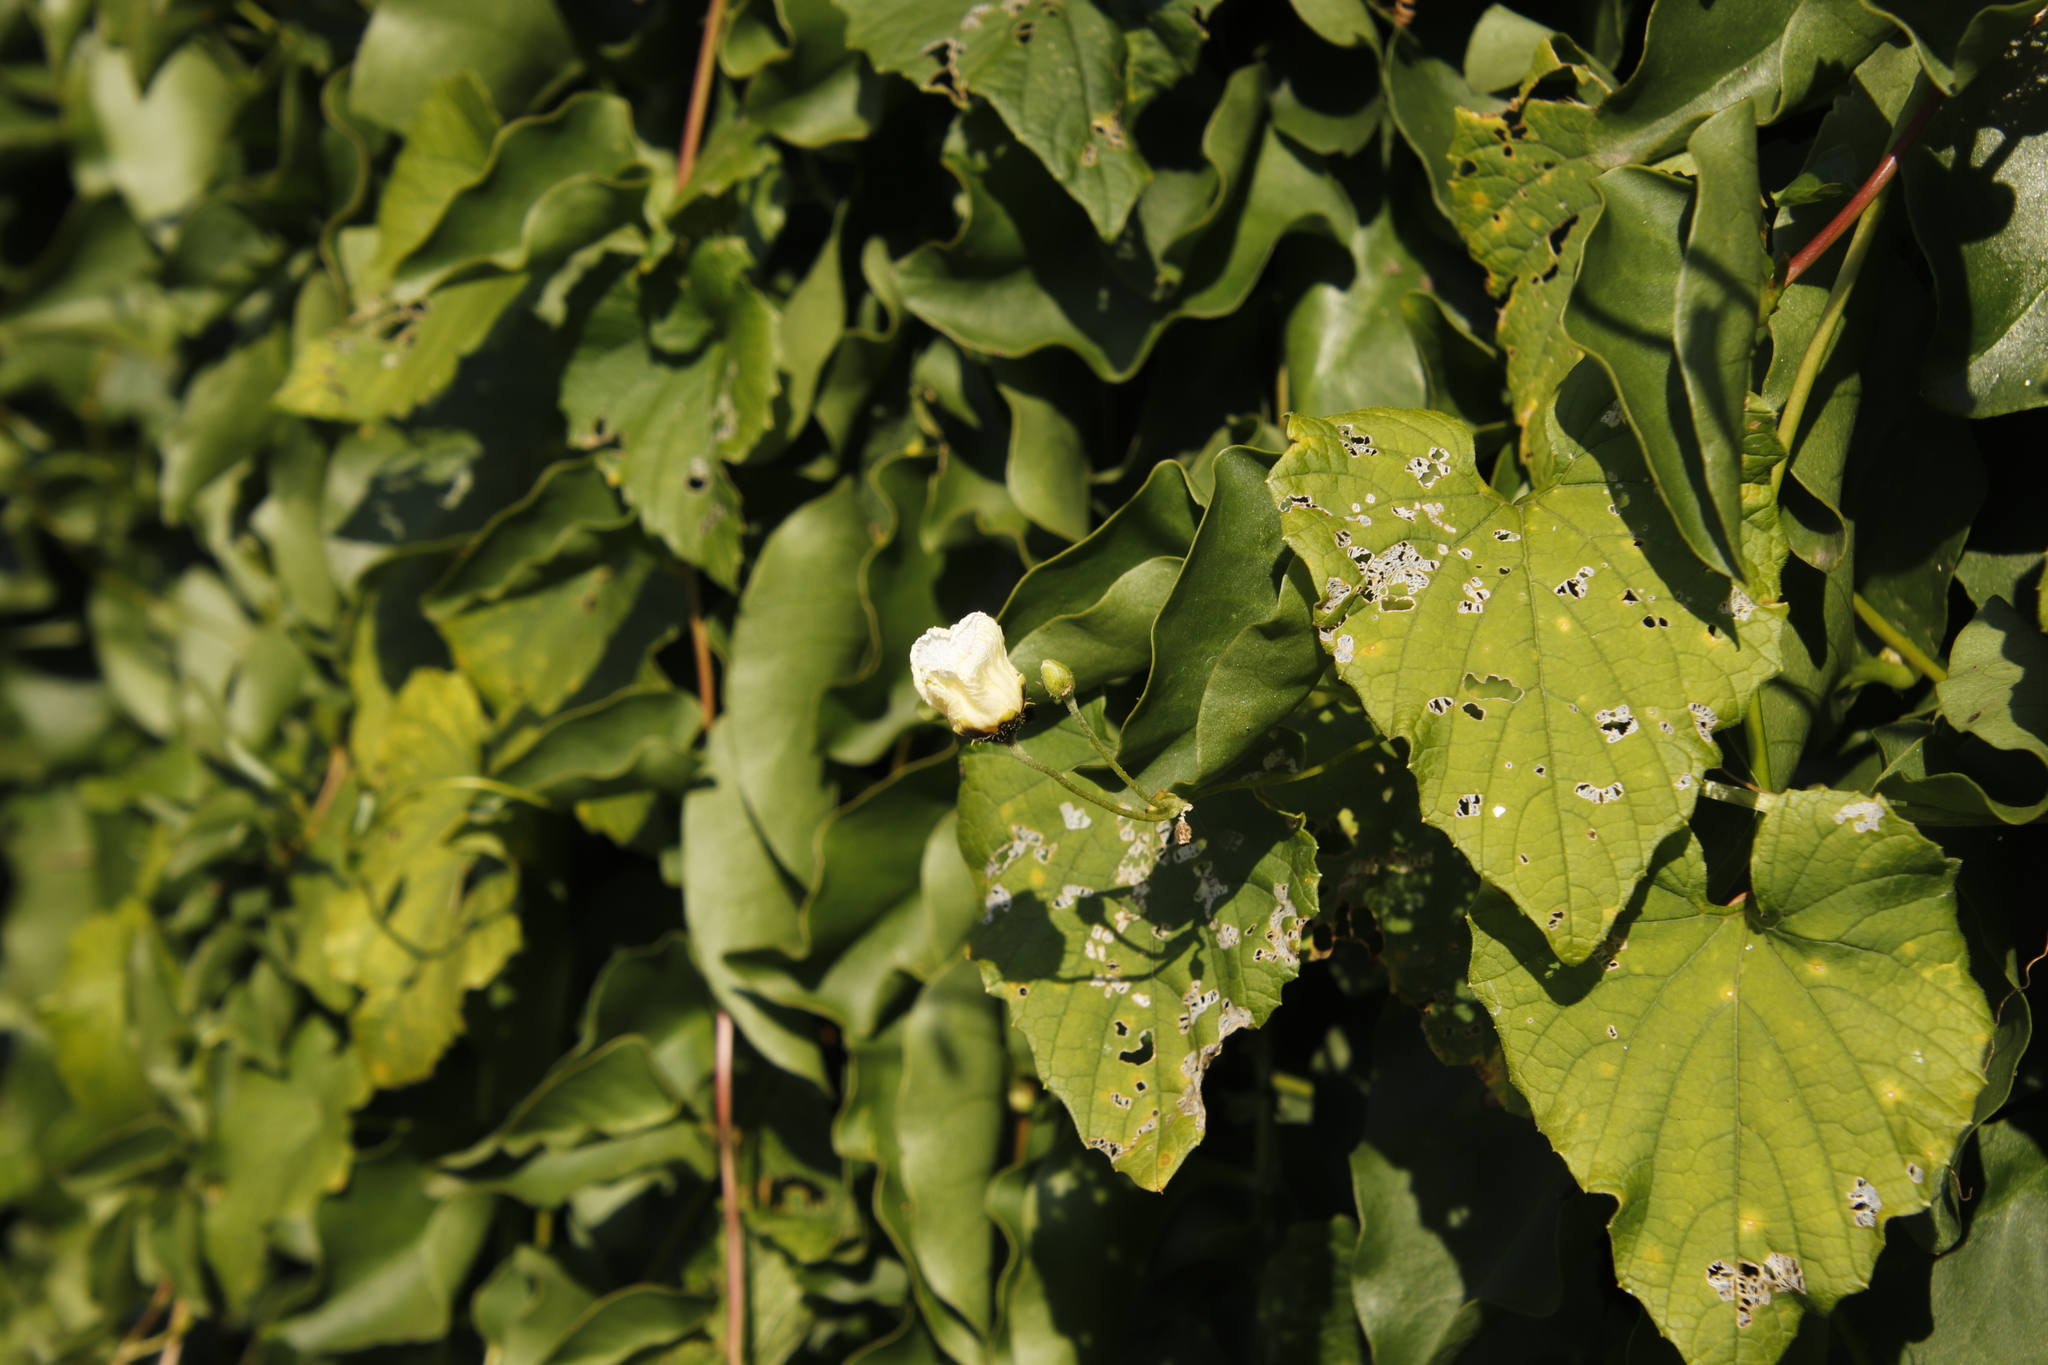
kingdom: Plantae
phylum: Tracheophyta
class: Magnoliopsida
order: Caryophyllales
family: Basellaceae
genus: Anredera
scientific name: Anredera cordifolia
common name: Heartleaf madeiravine
